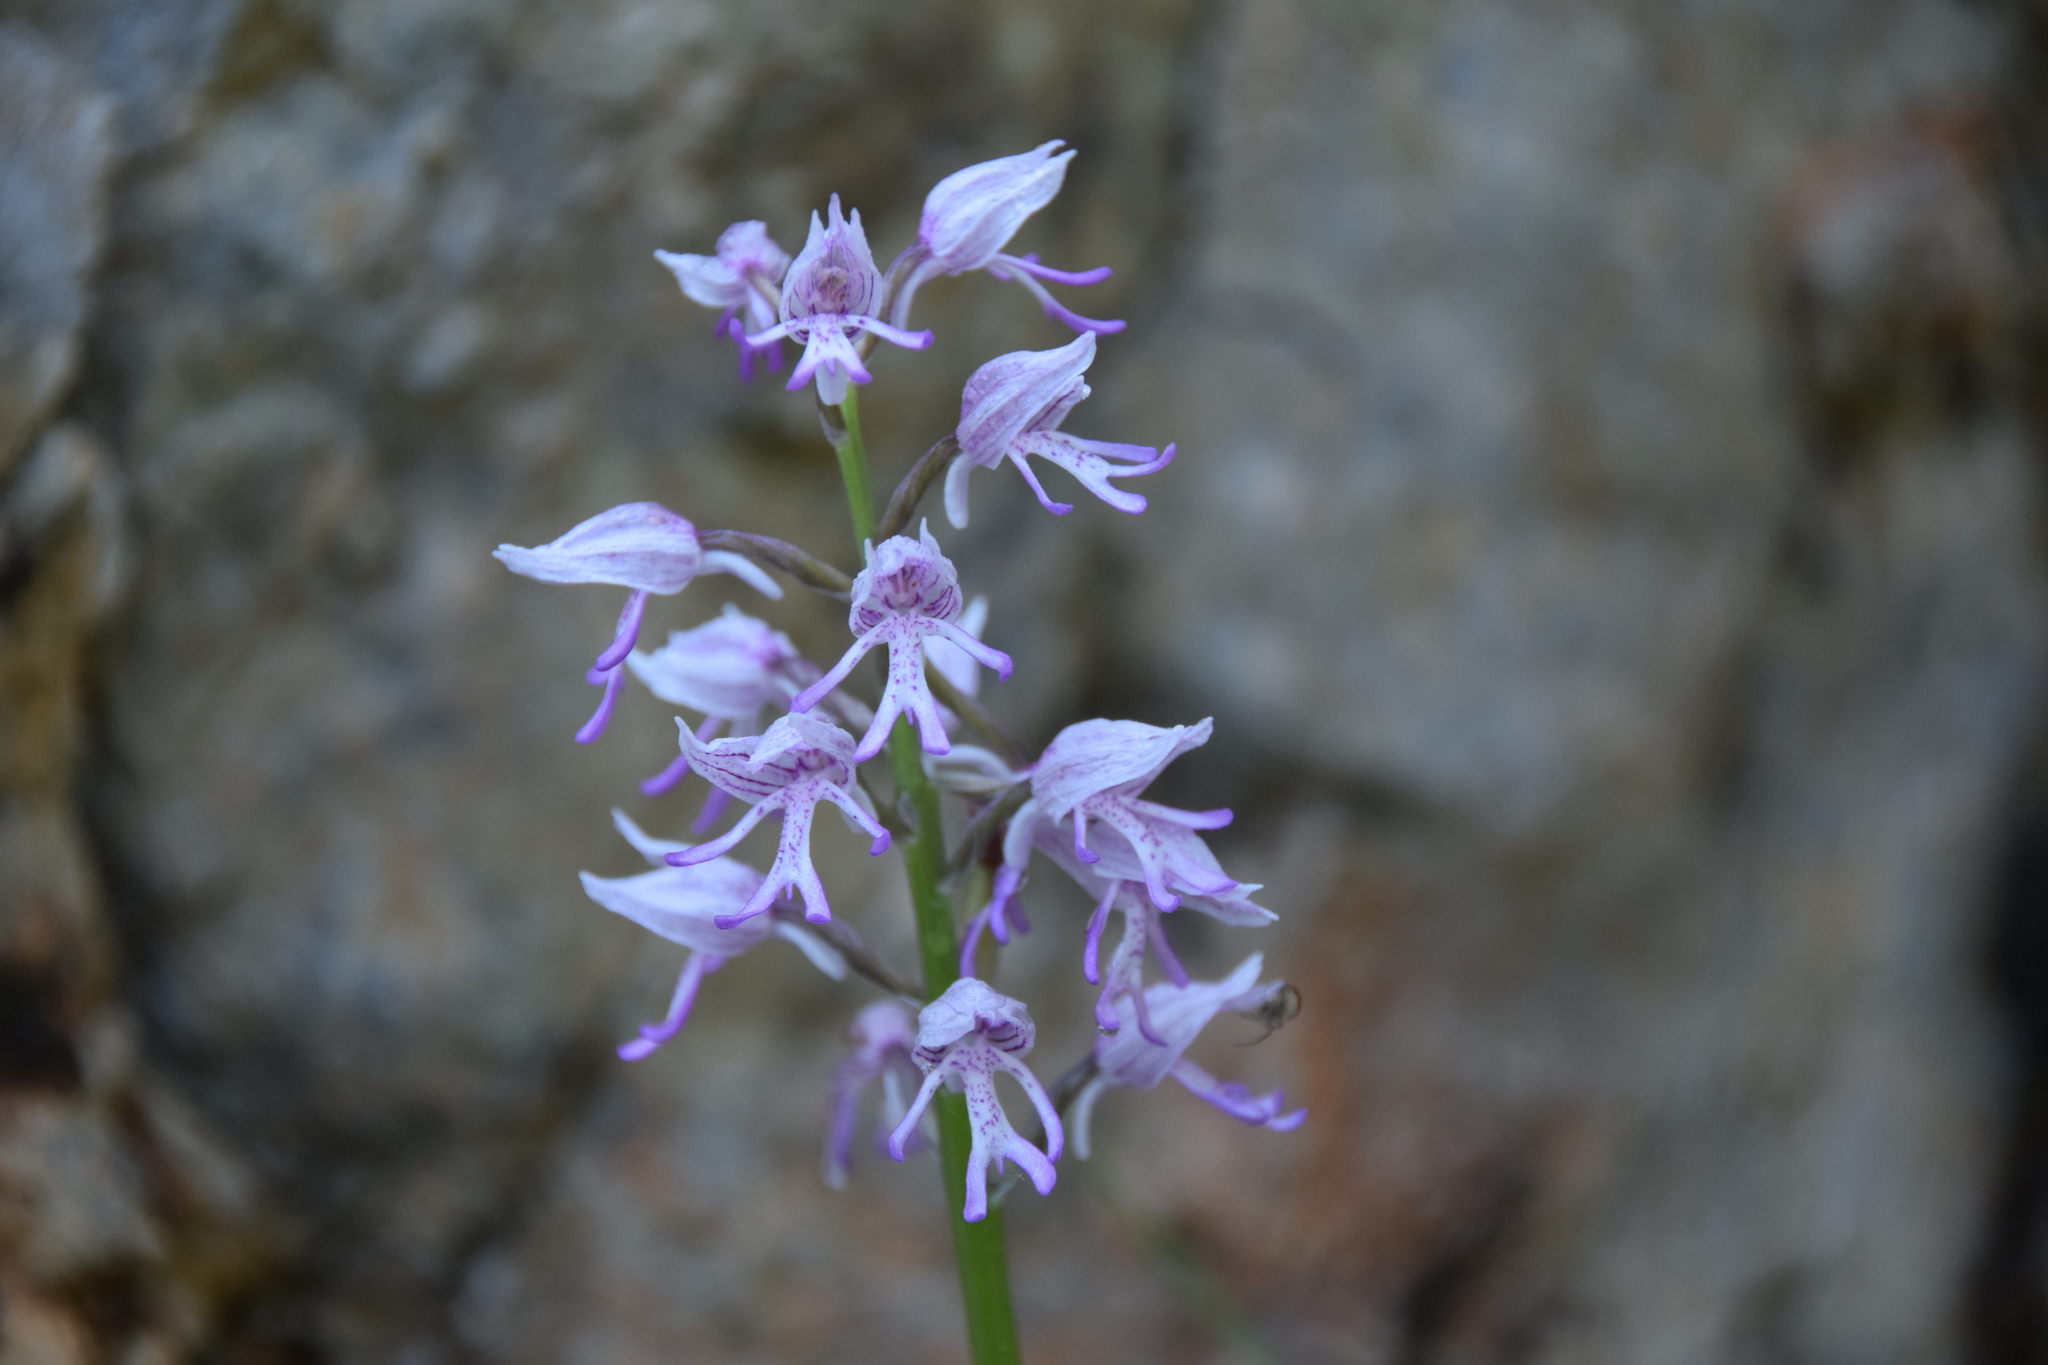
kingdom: Plantae
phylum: Tracheophyta
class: Liliopsida
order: Asparagales
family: Orchidaceae
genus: Orchis
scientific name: Orchis simia
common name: Monkey orchid
